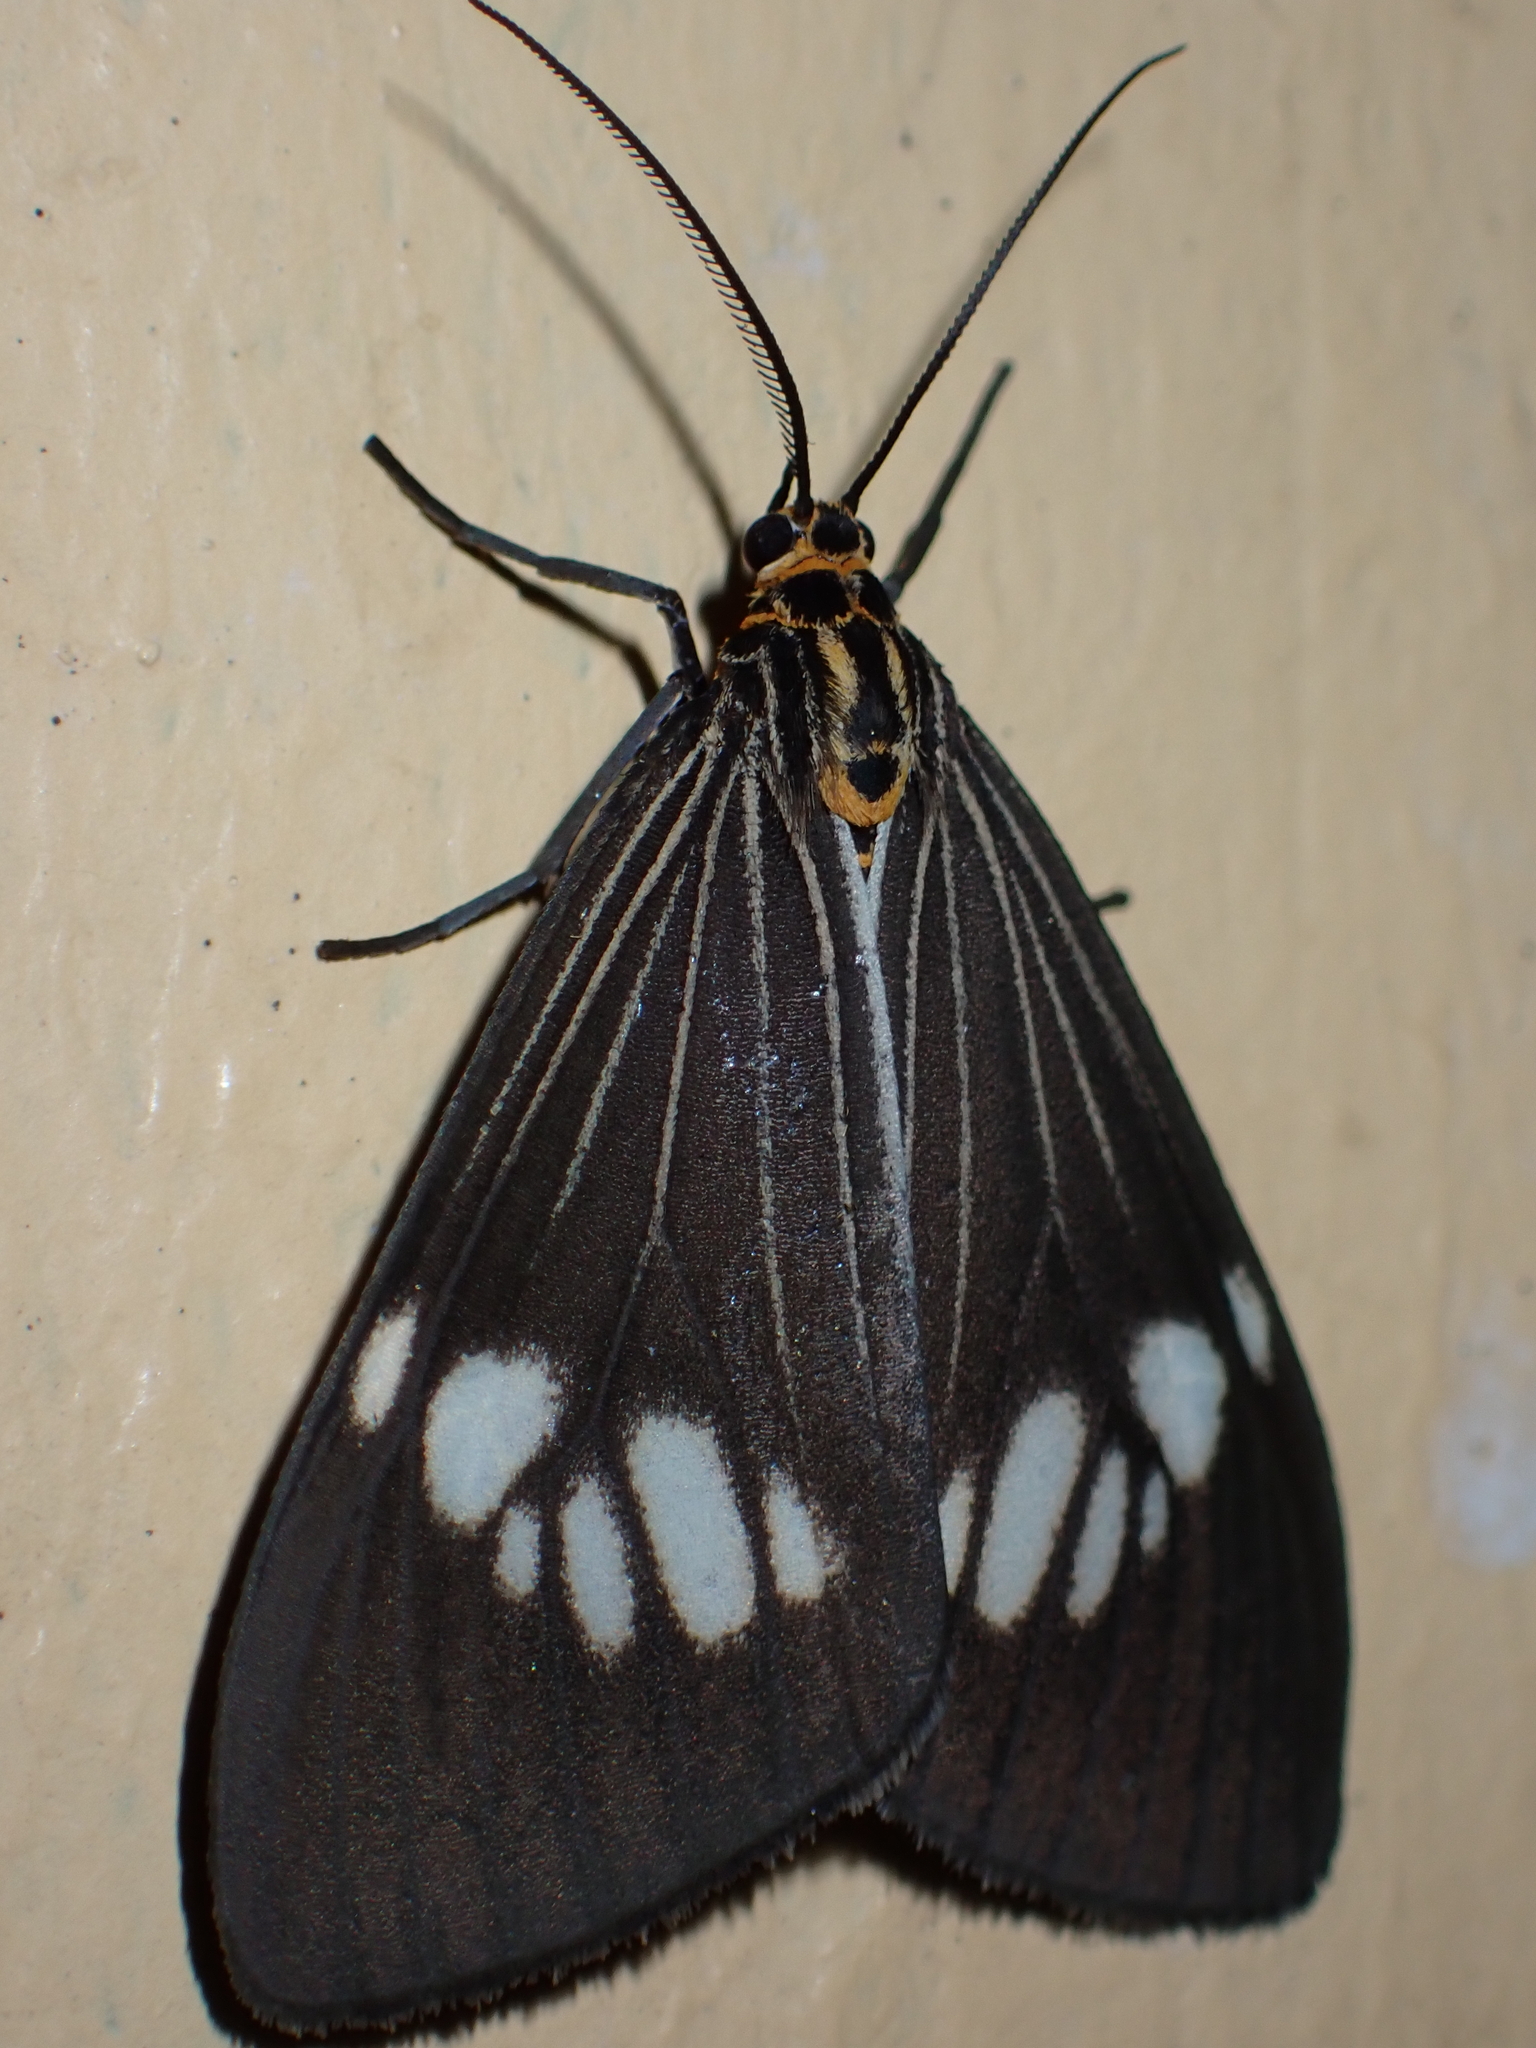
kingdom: Animalia
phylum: Arthropoda
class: Insecta
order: Lepidoptera
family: Erebidae
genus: Nyctemera
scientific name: Nyctemera baulus
